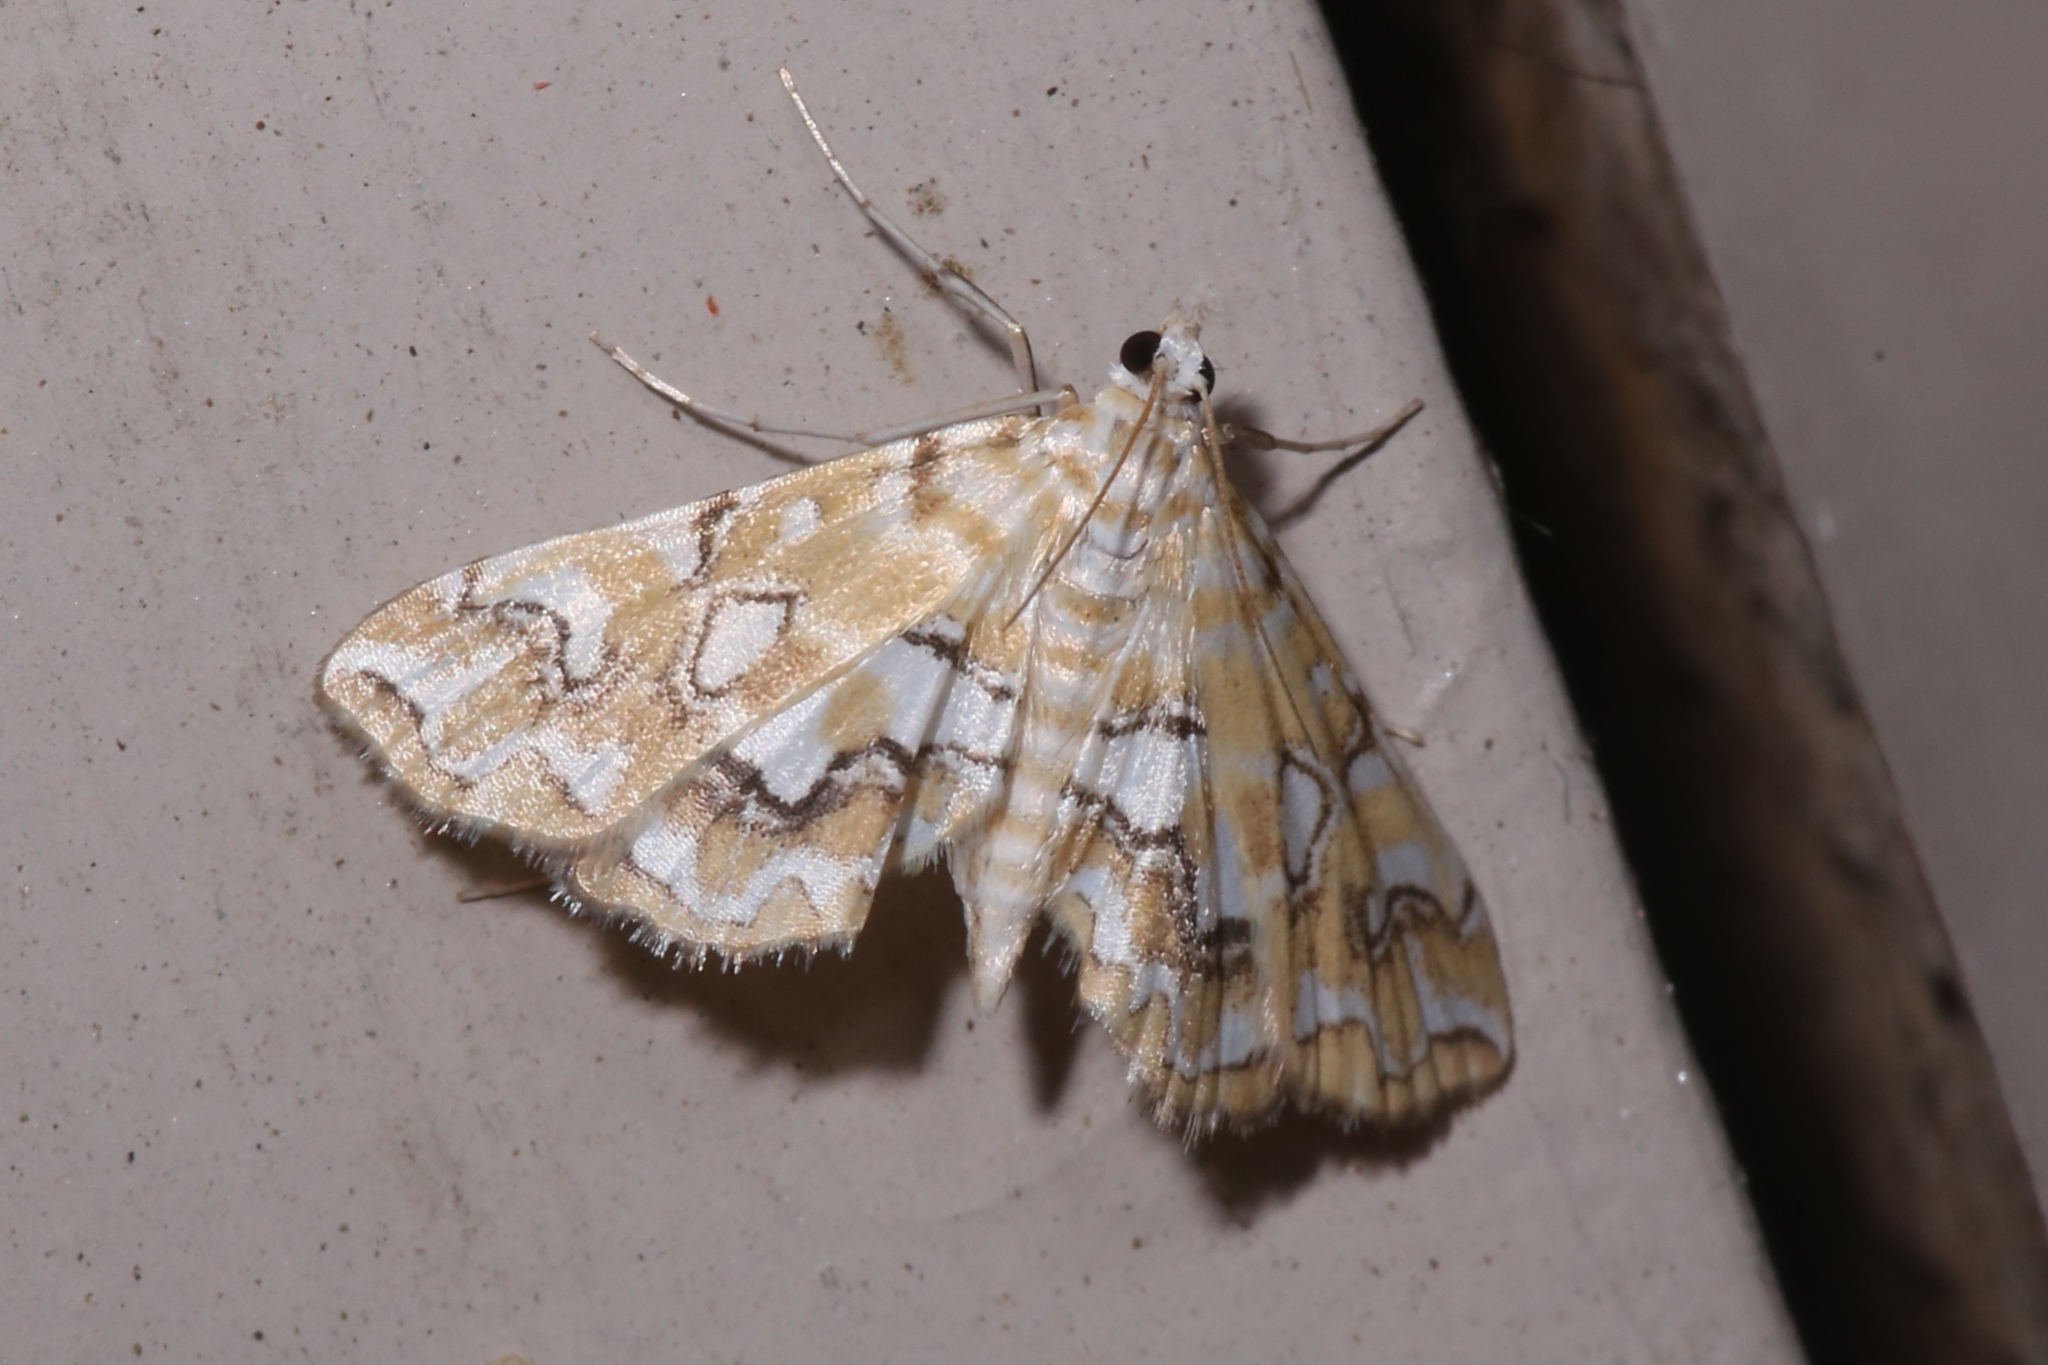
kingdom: Animalia
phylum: Arthropoda
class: Insecta
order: Lepidoptera
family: Crambidae
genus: Elophila
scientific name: Elophila icciusalis
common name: Pondside pyralid moth
